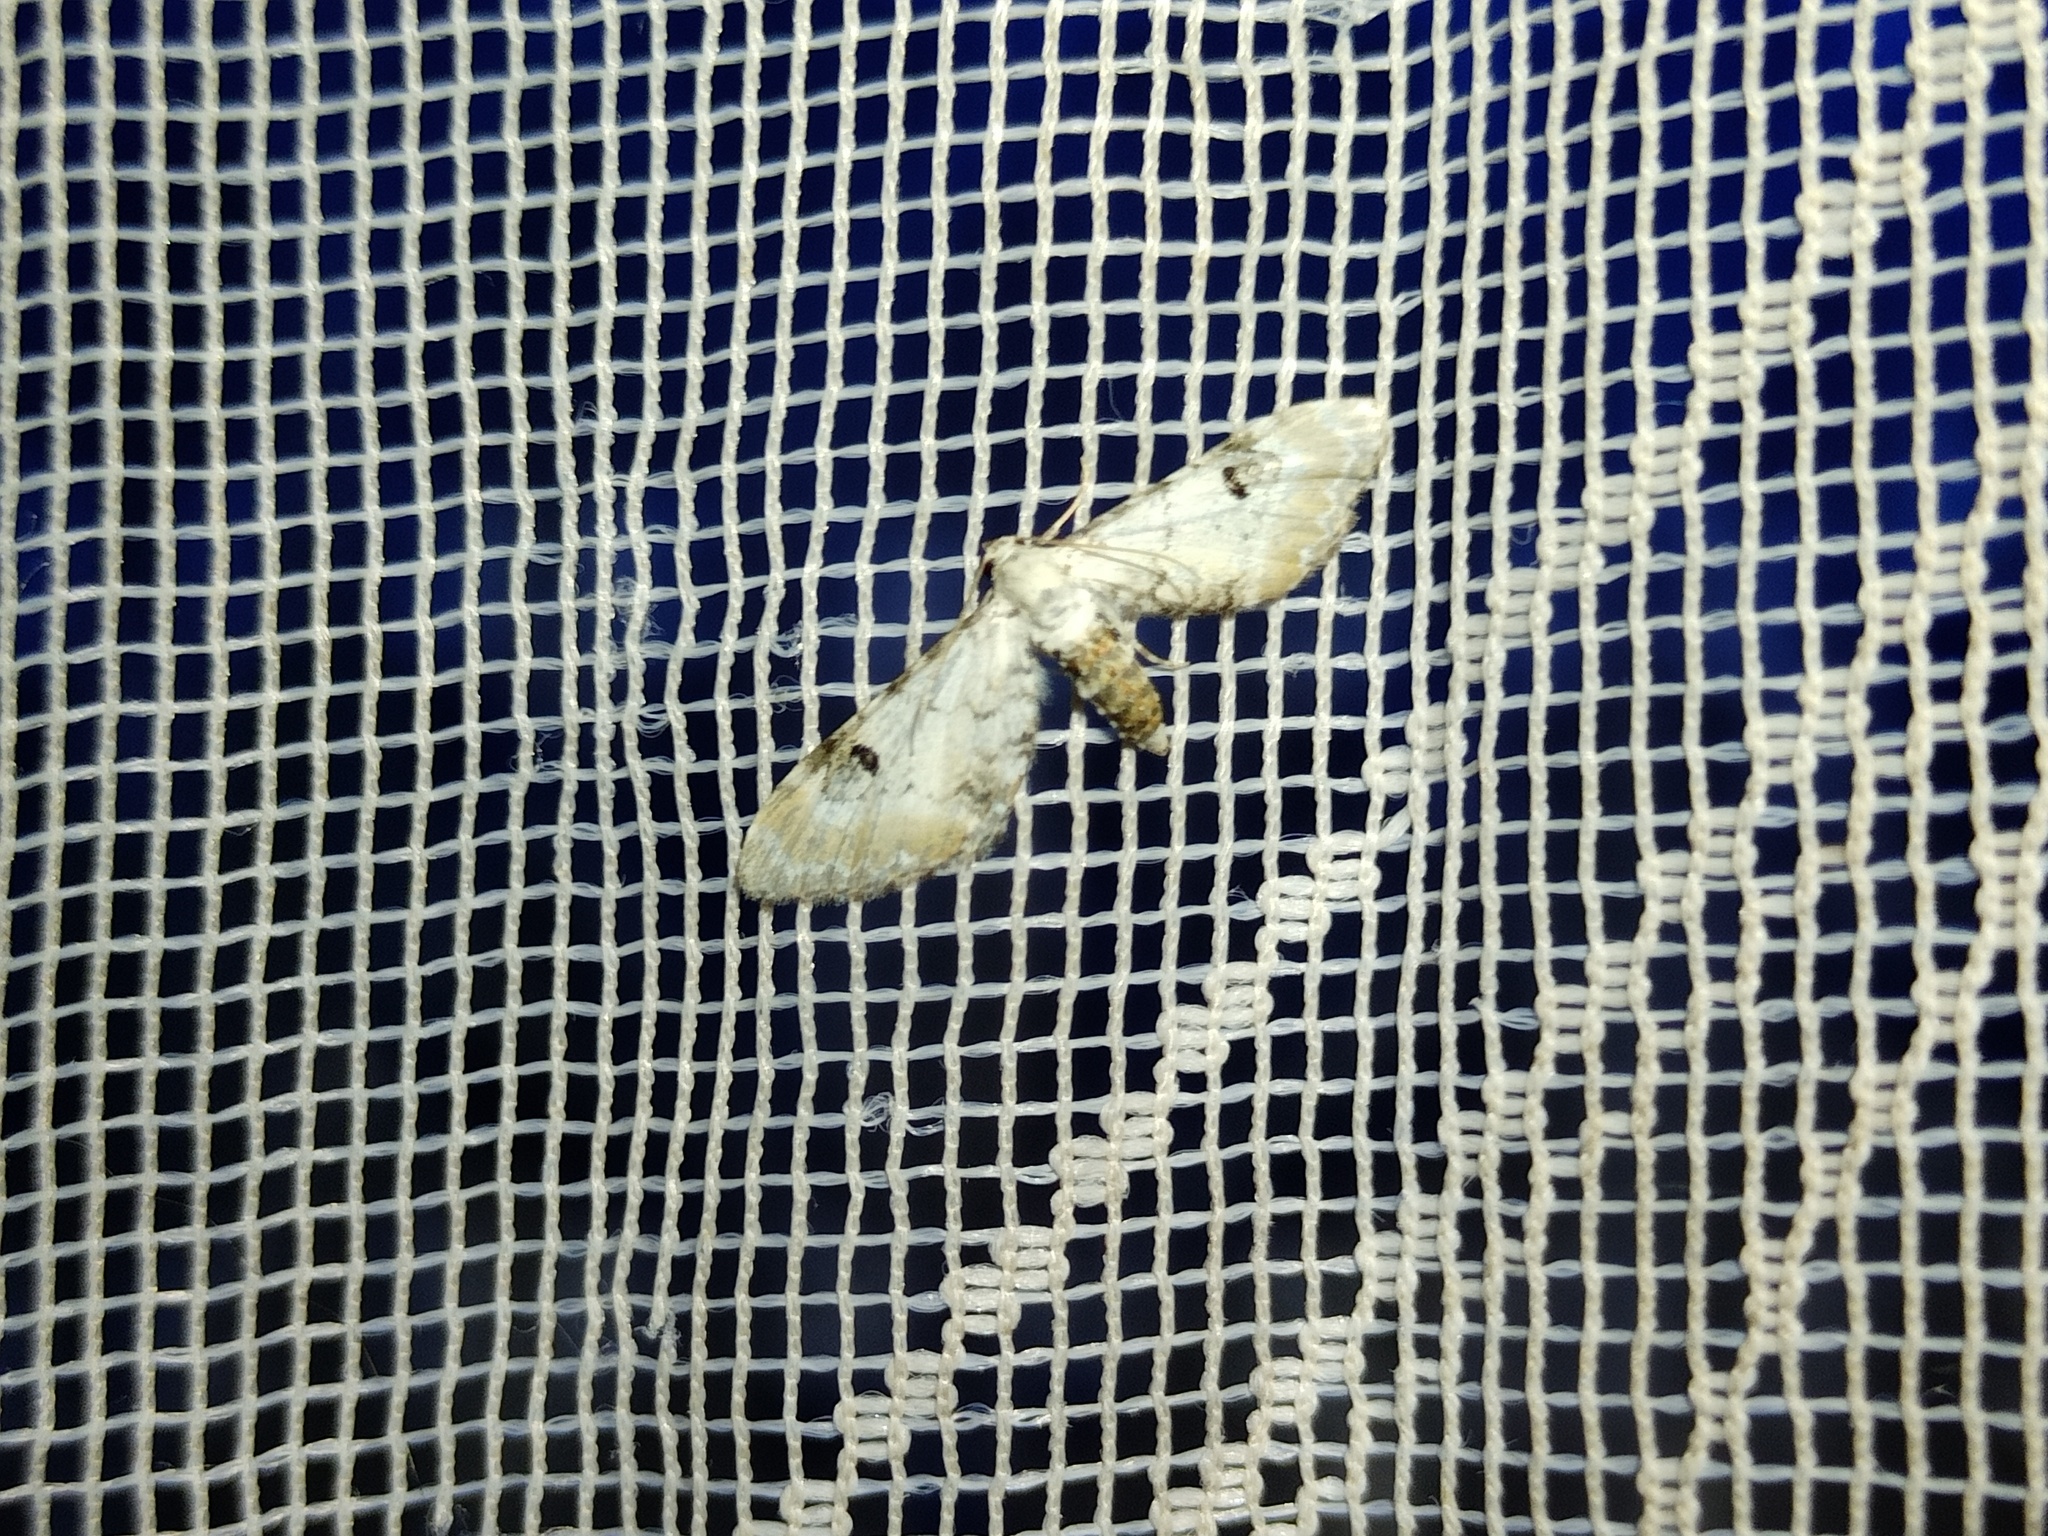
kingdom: Animalia
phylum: Arthropoda
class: Insecta
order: Lepidoptera
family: Geometridae
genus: Eupithecia
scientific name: Eupithecia centaureata
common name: Lime-speck pug
